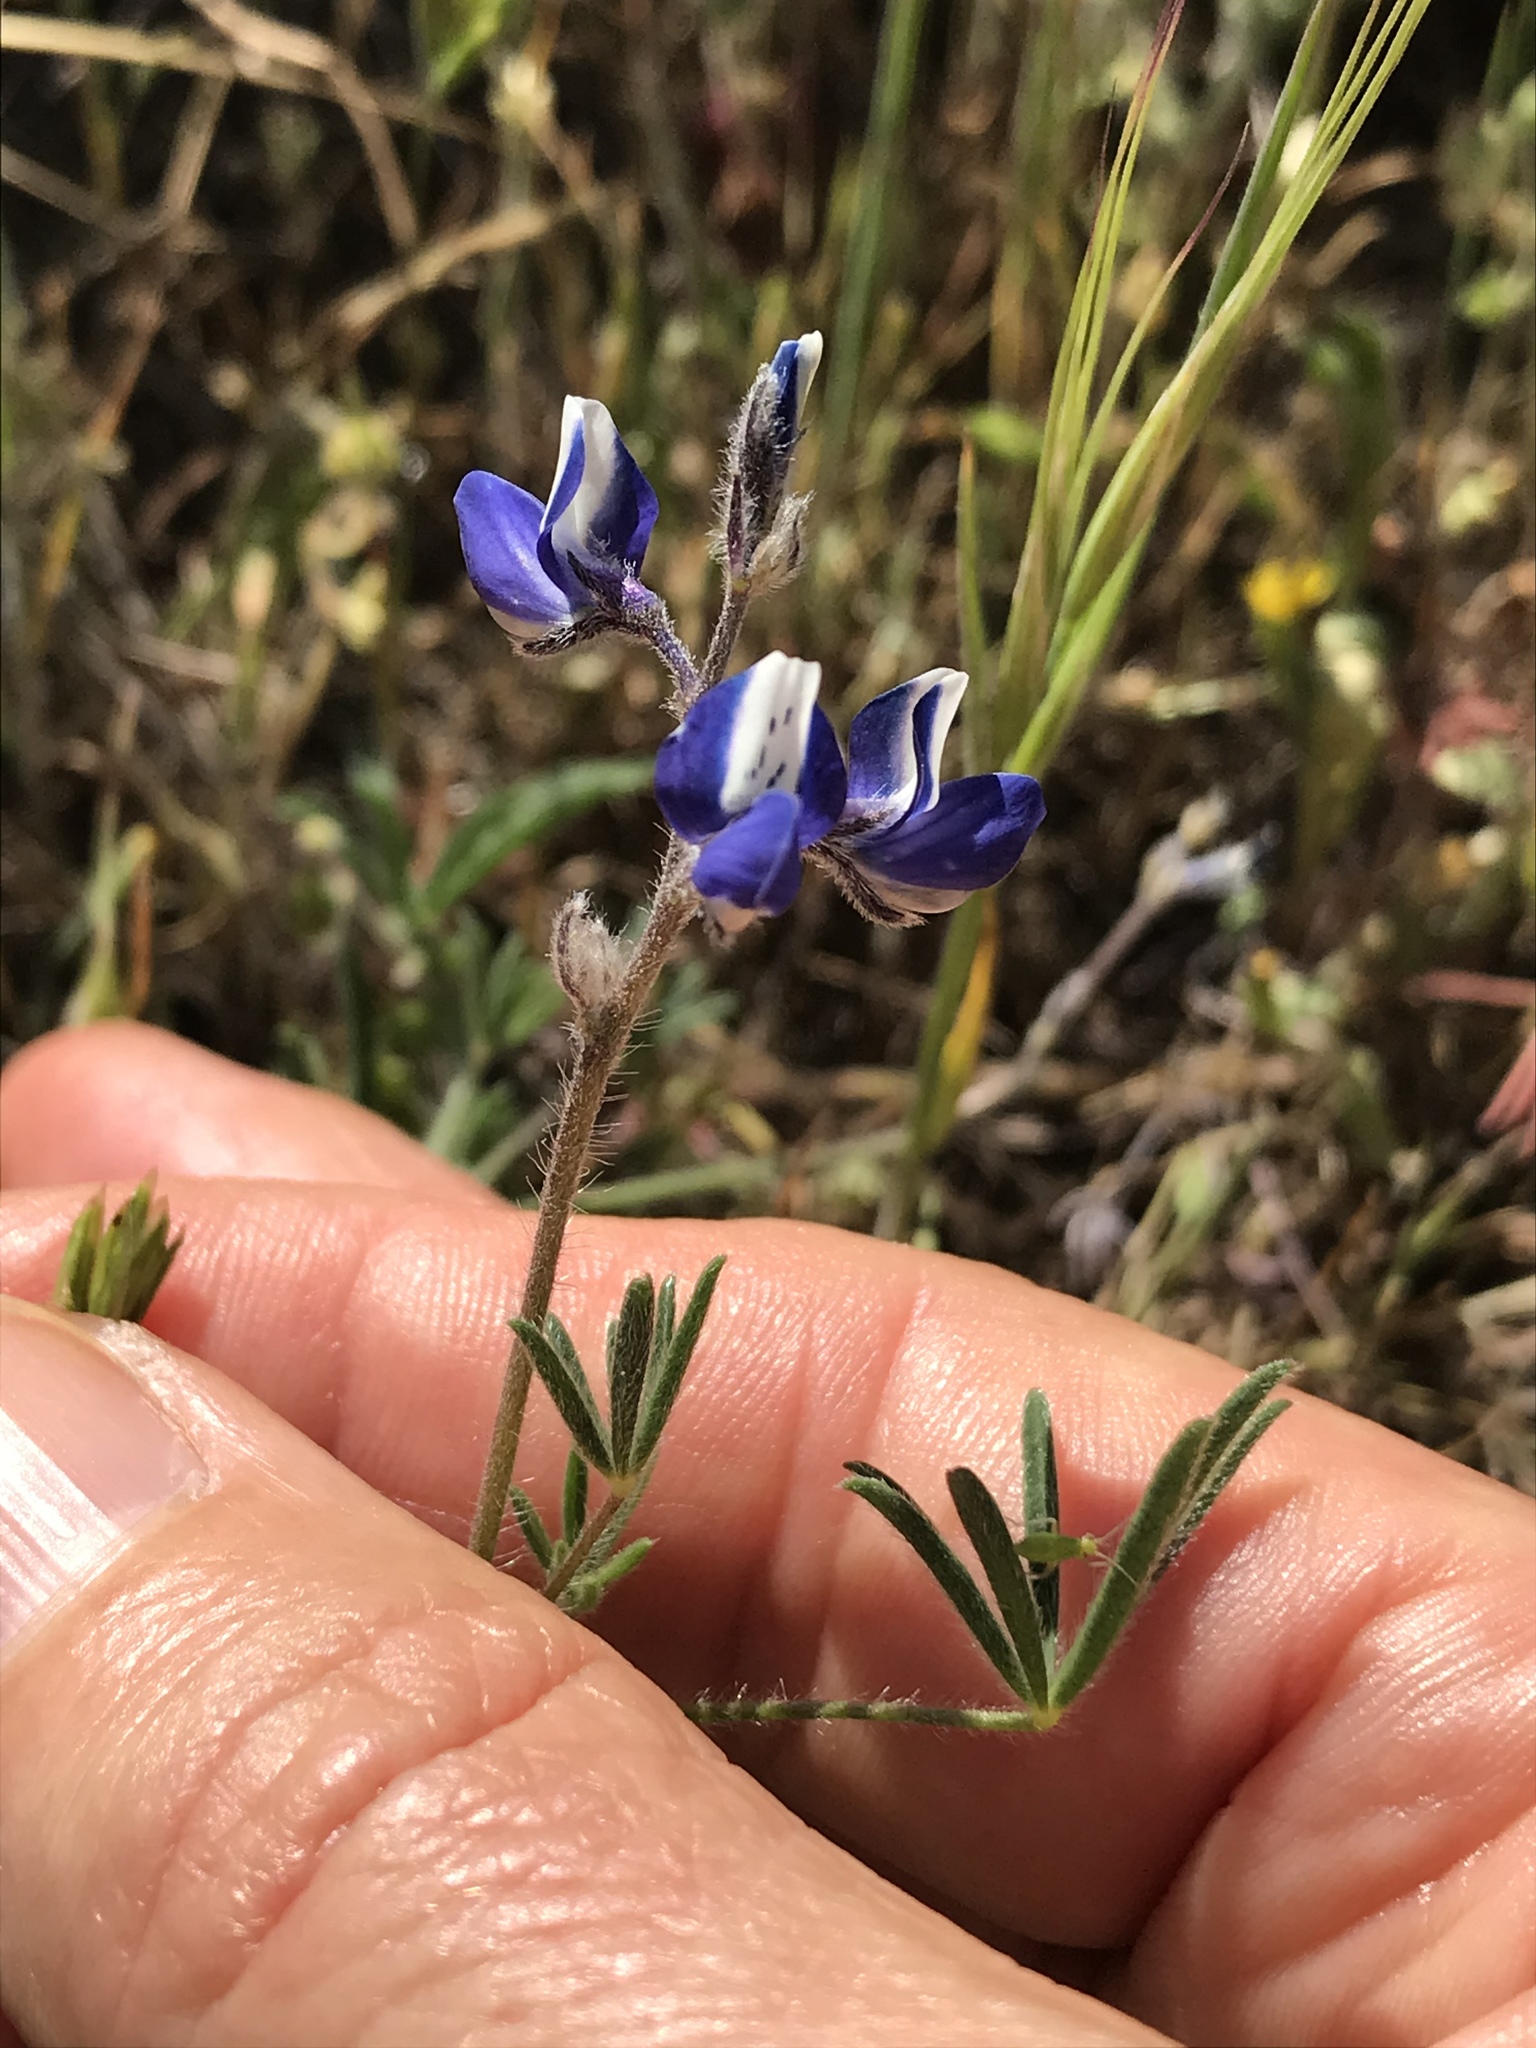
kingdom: Plantae
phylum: Tracheophyta
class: Magnoliopsida
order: Fabales
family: Fabaceae
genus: Lupinus
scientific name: Lupinus bicolor
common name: Miniature lupine
